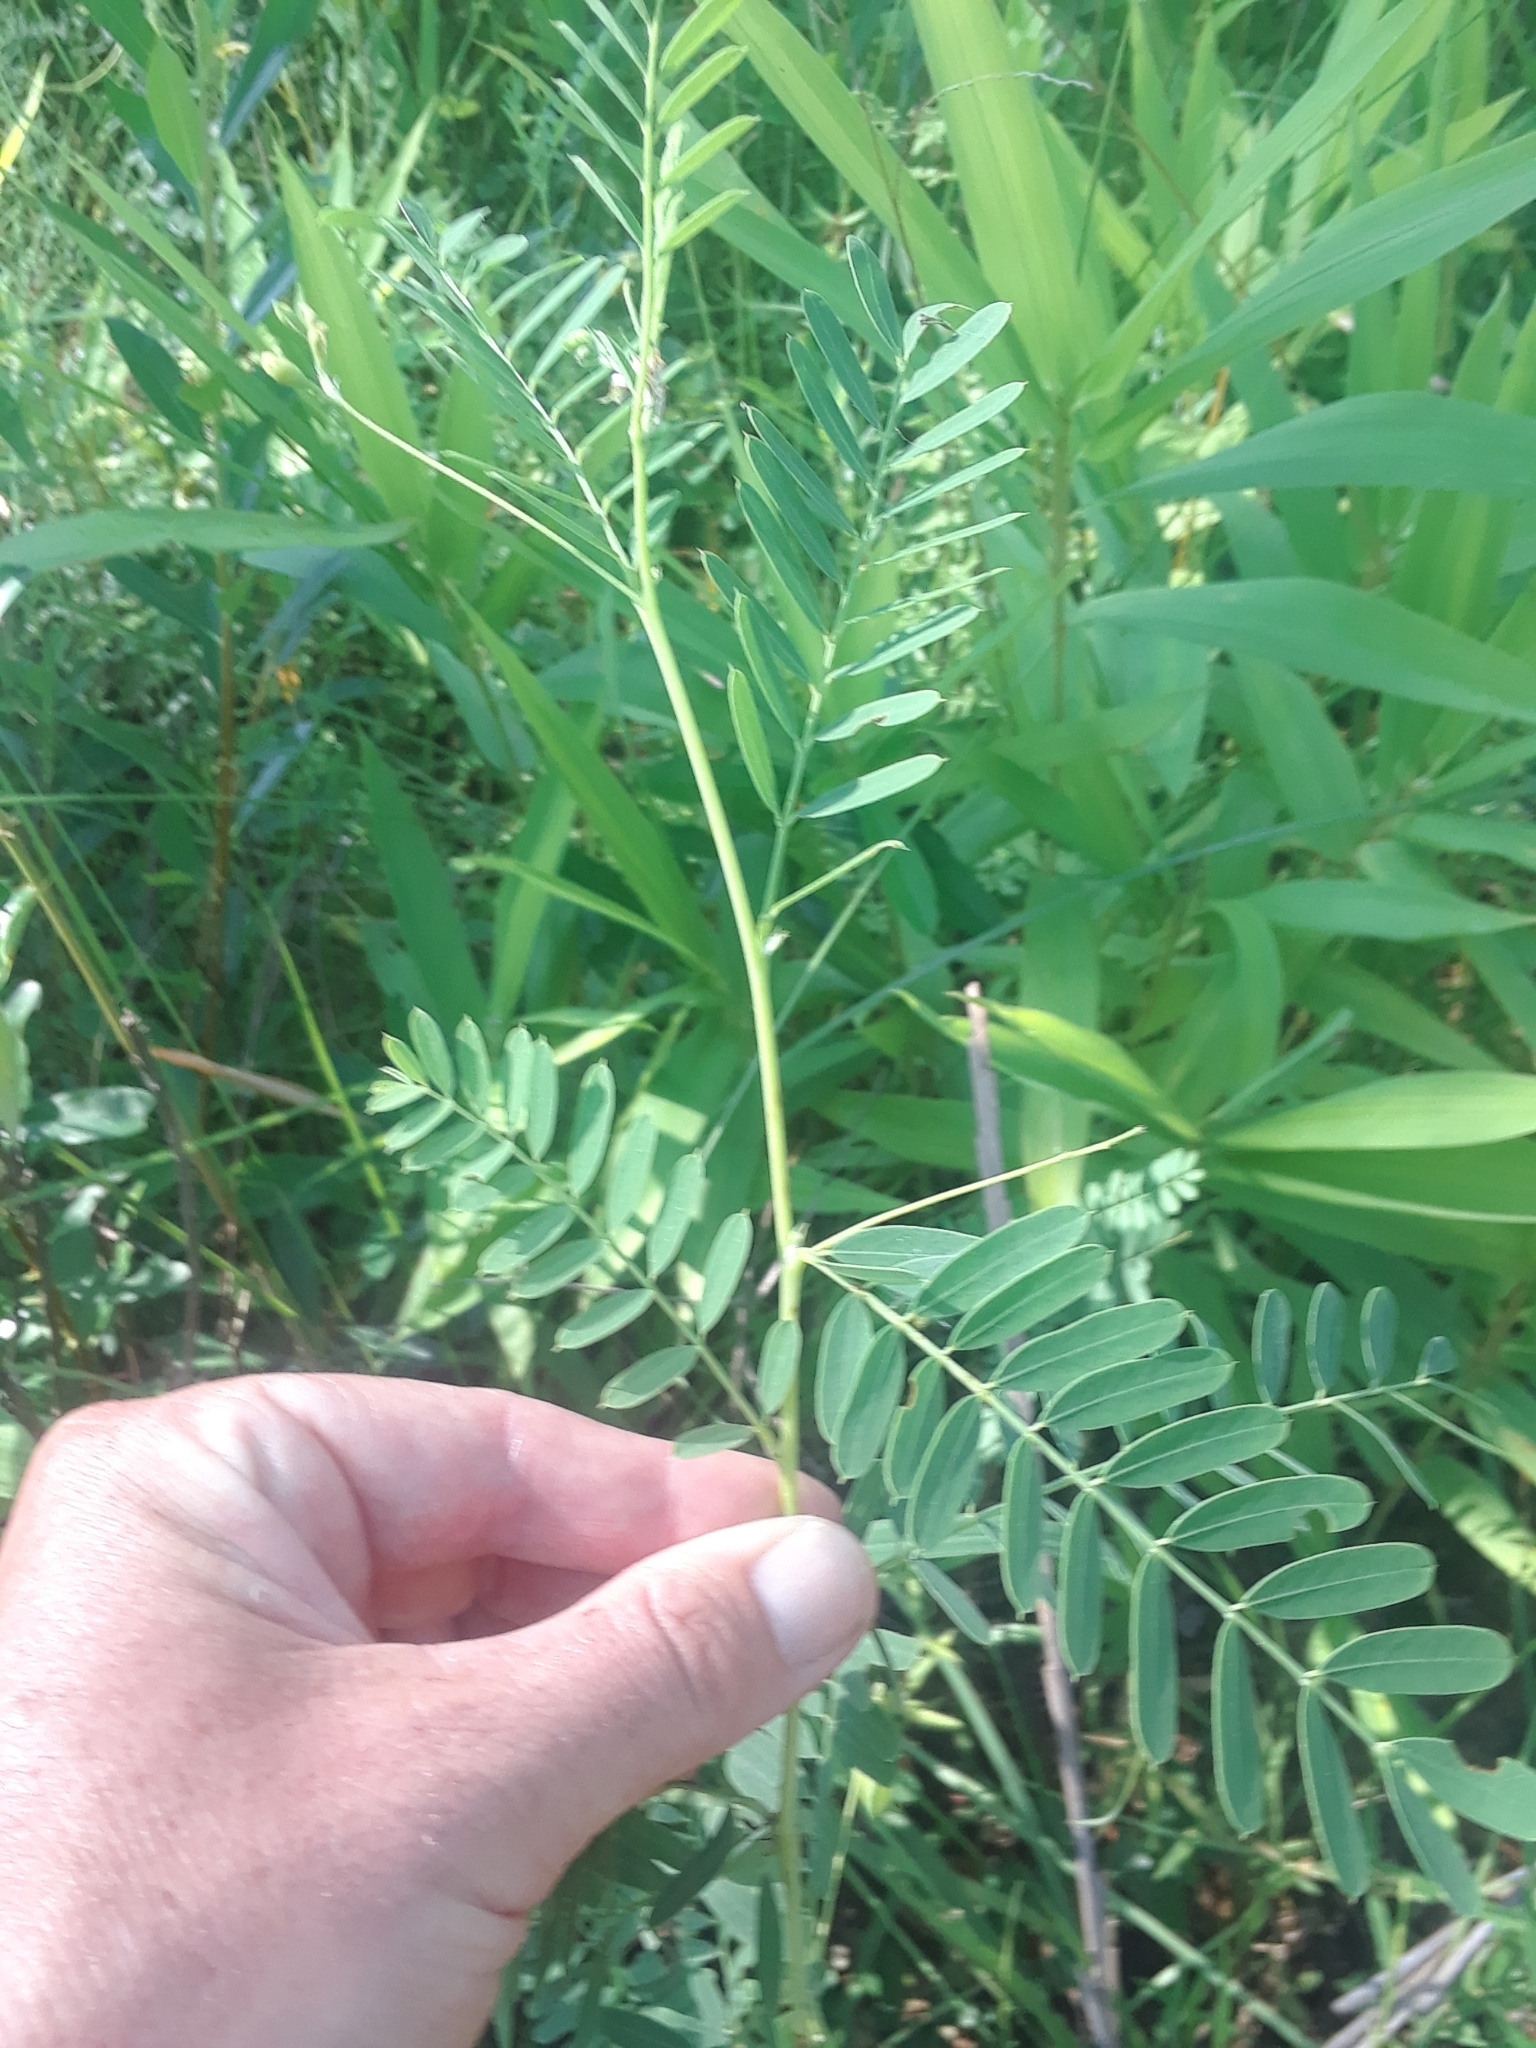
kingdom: Plantae
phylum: Tracheophyta
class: Magnoliopsida
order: Fabales
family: Fabaceae
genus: Sesbania
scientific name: Sesbania vesicaria
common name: Bagpod
